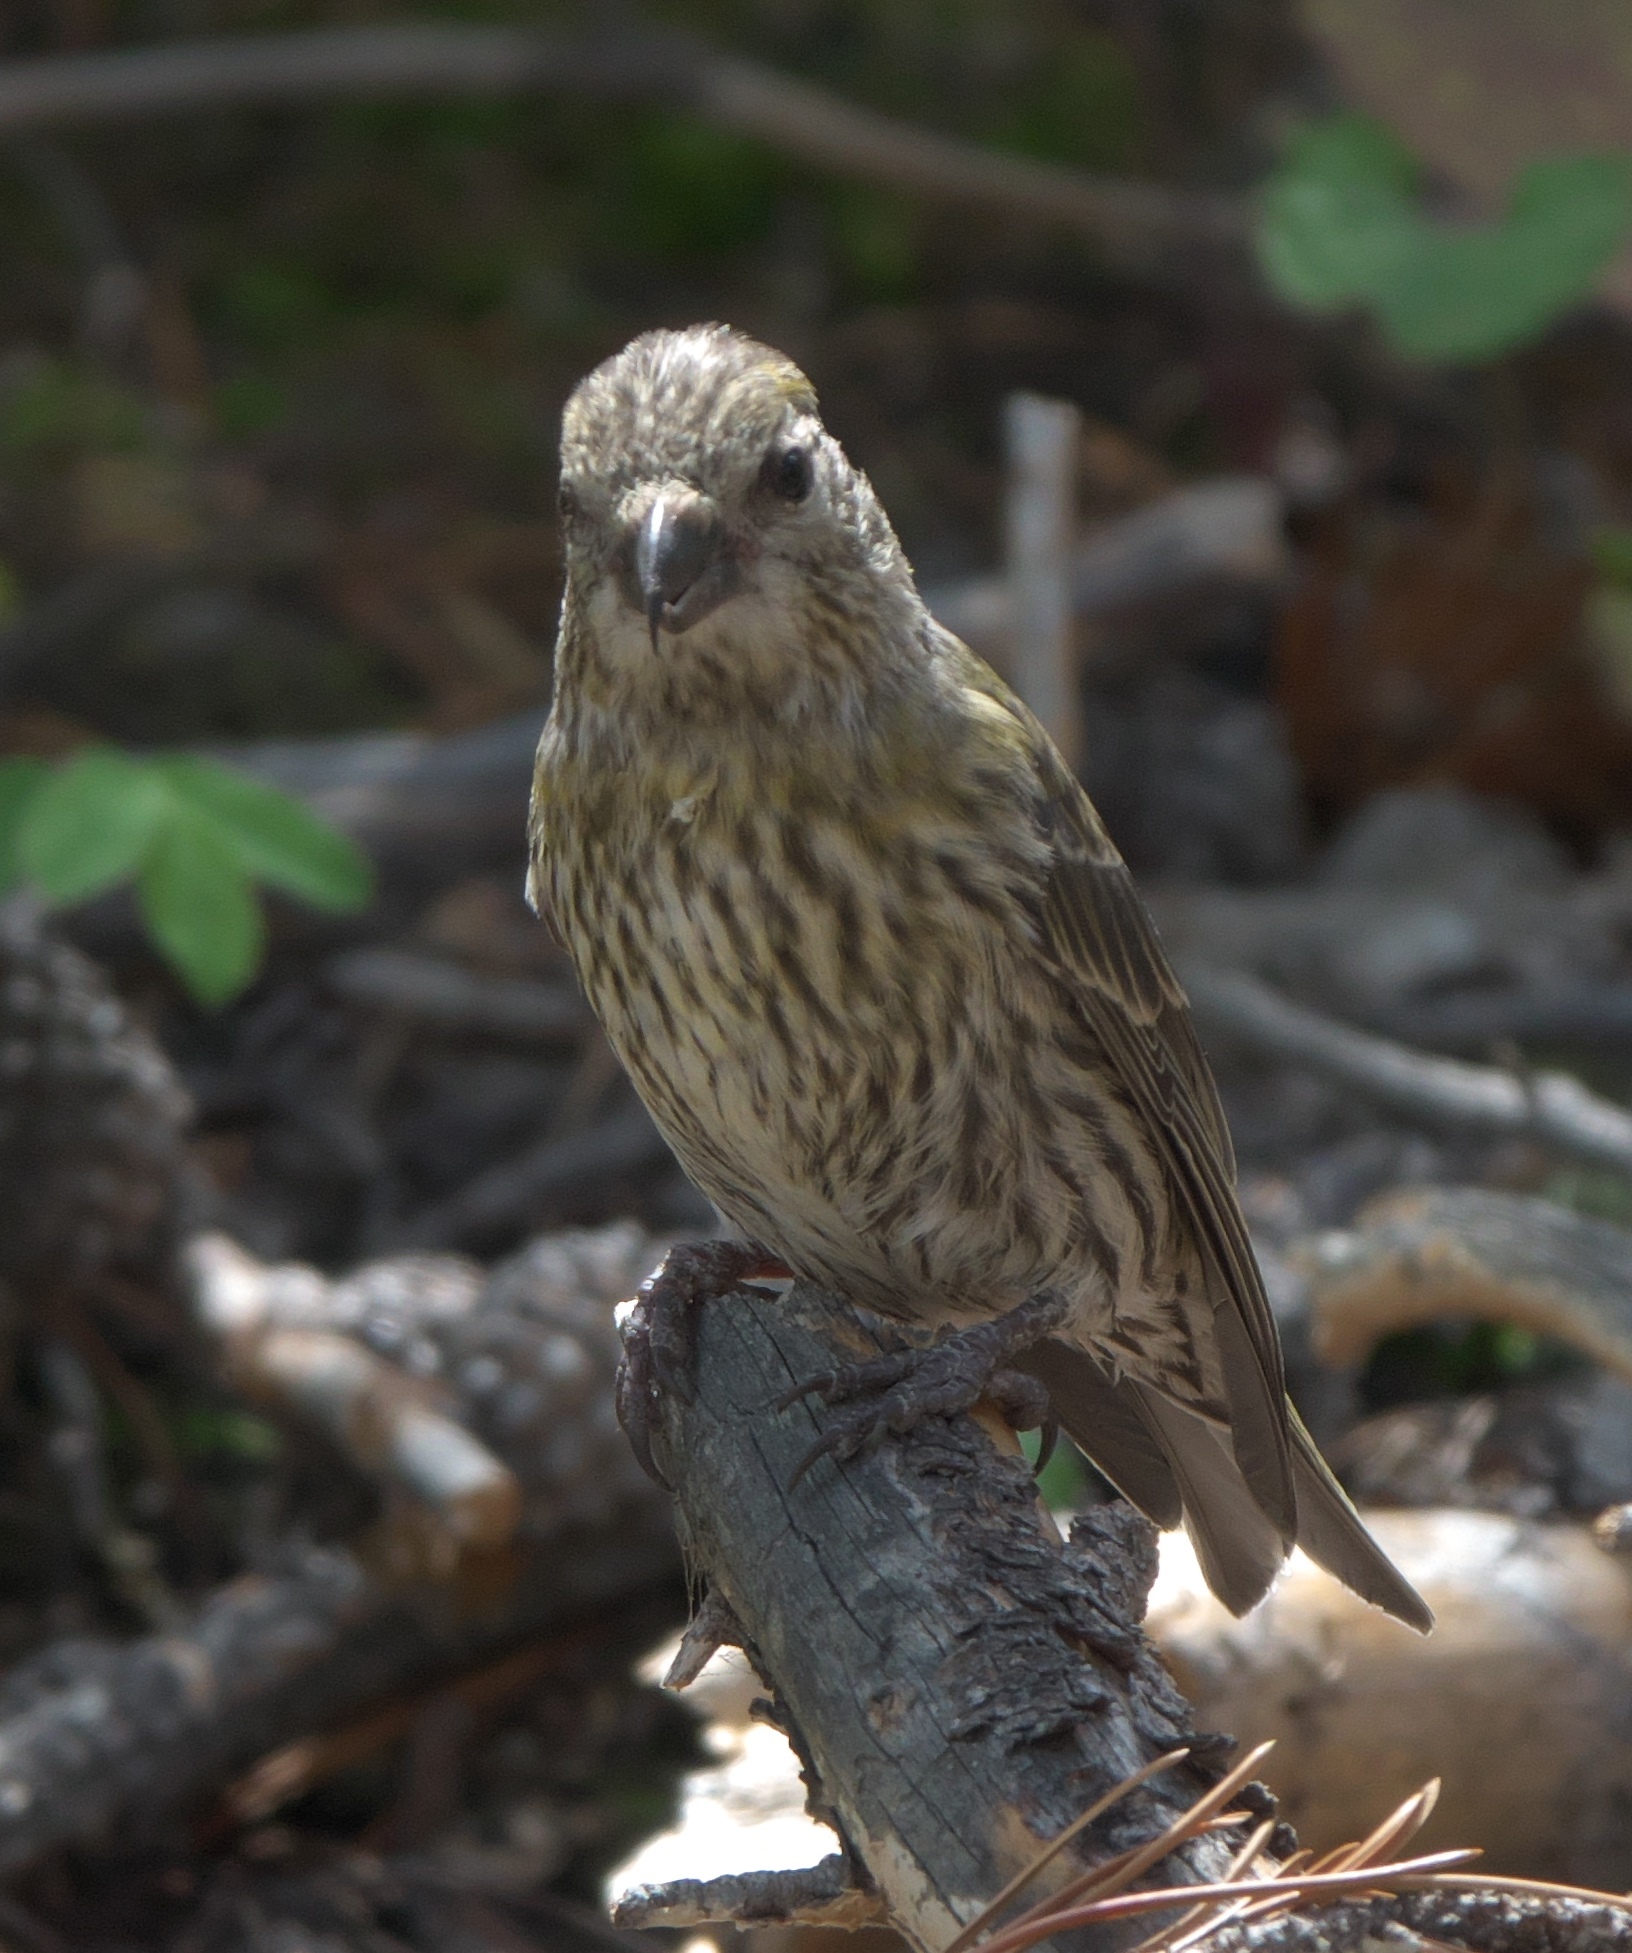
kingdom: Animalia
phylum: Chordata
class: Aves
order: Passeriformes
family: Fringillidae
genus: Loxia
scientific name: Loxia curvirostra
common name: Red crossbill
